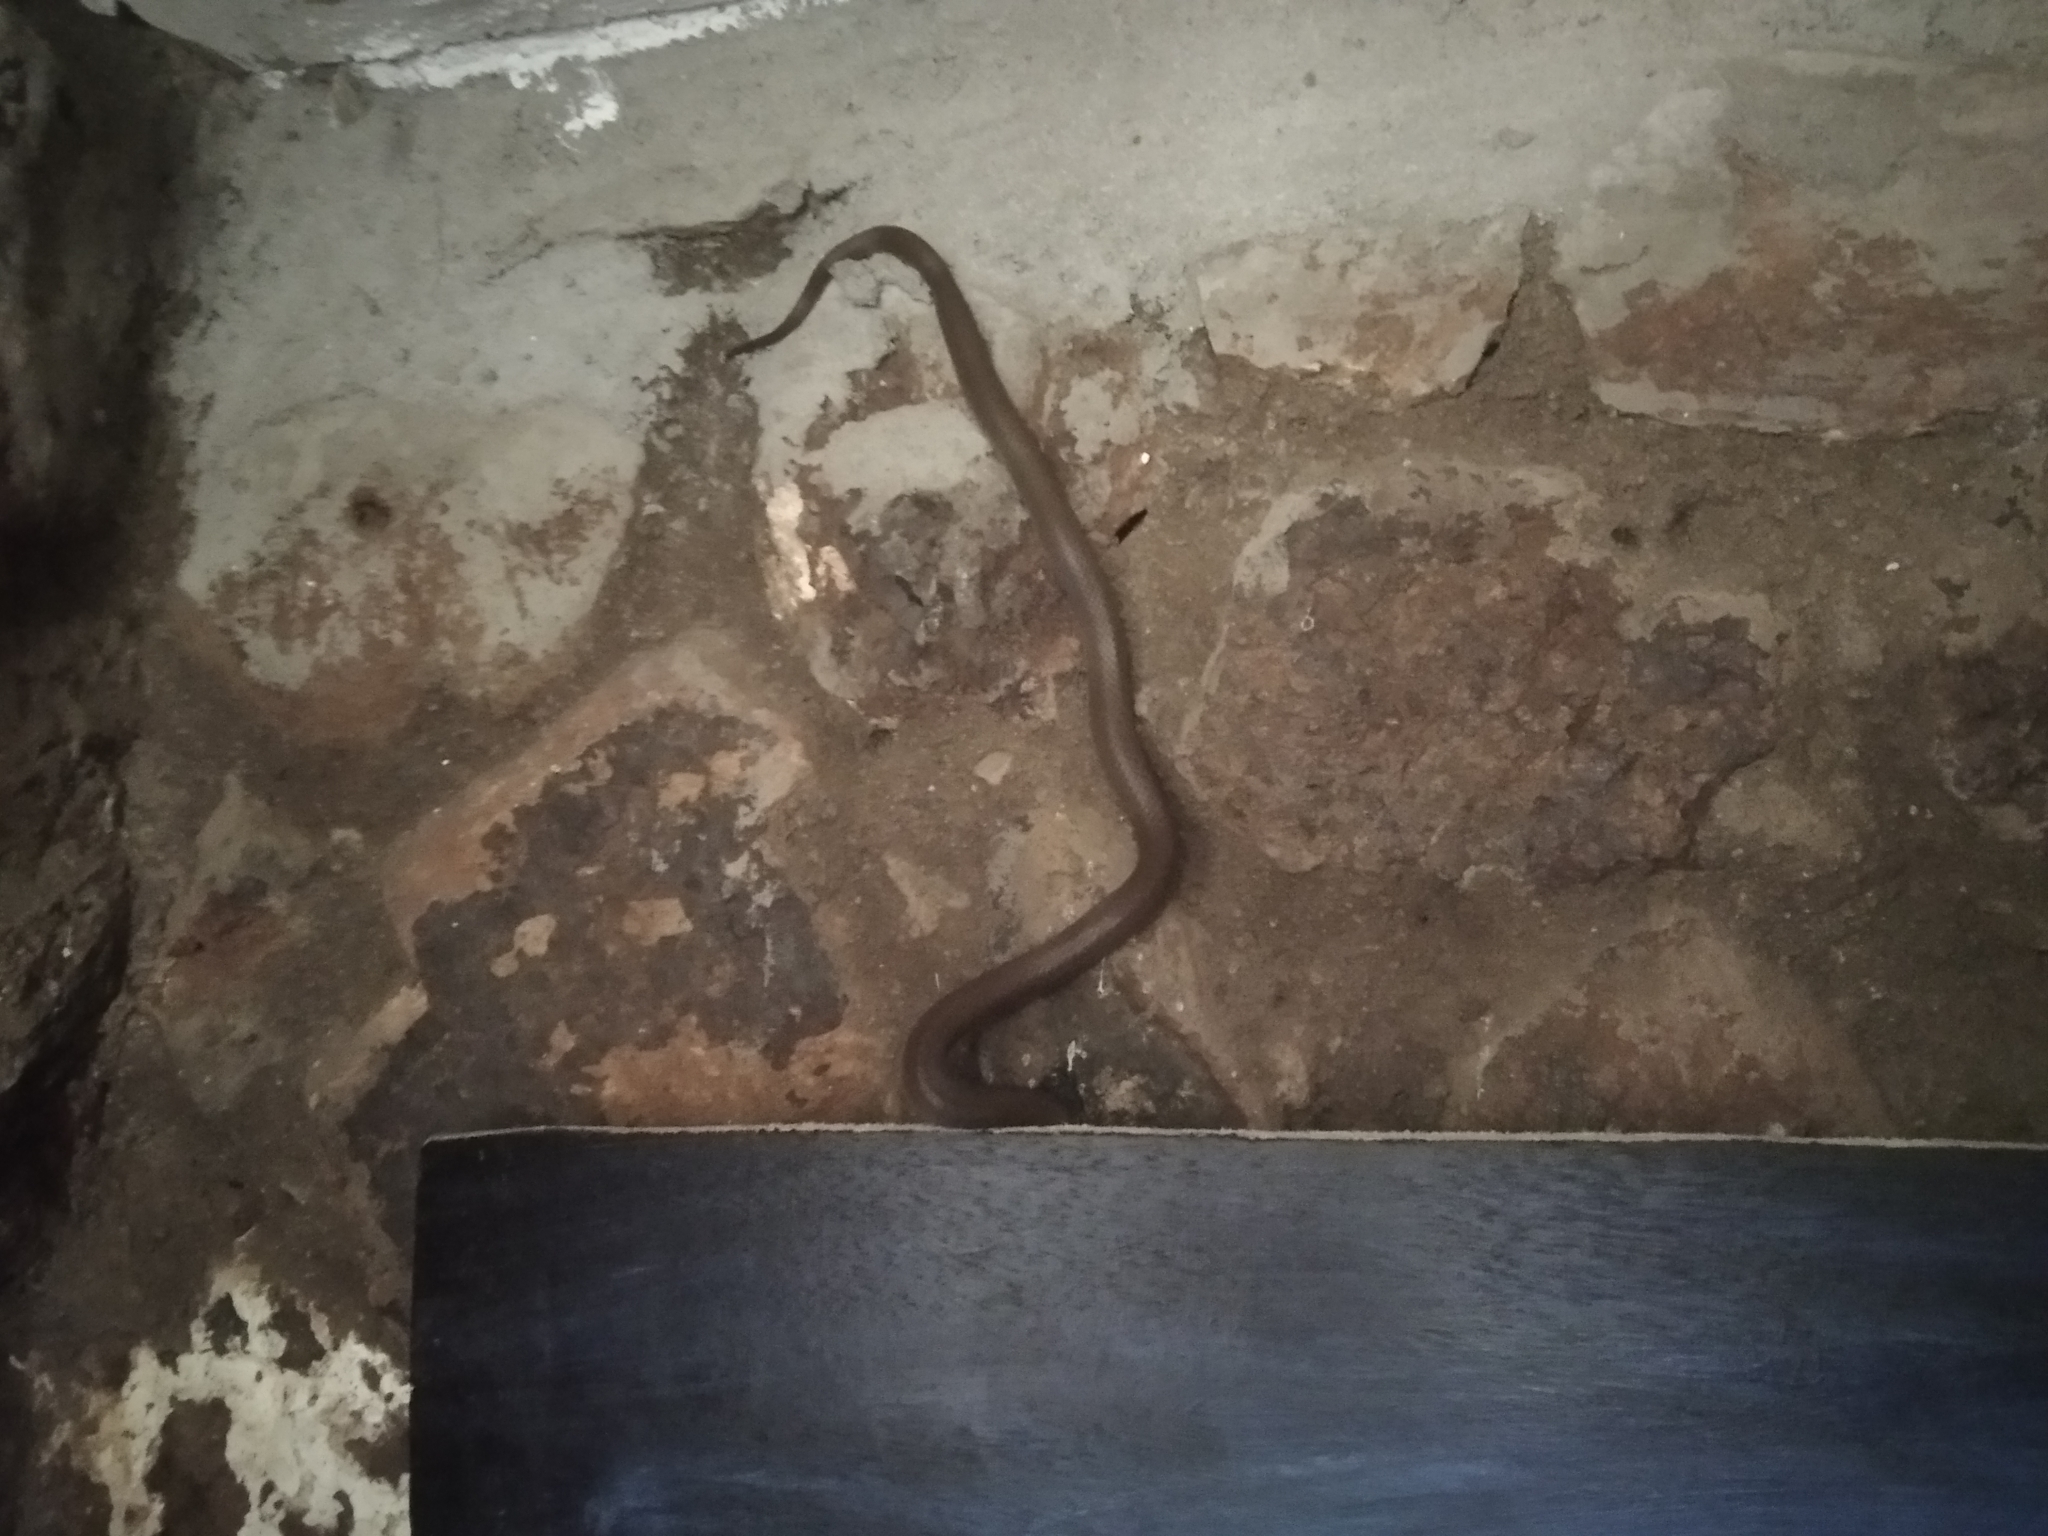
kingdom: Animalia
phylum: Chordata
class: Squamata
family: Lamprophiidae
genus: Boaedon
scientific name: Boaedon capensis
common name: Brown house snake
